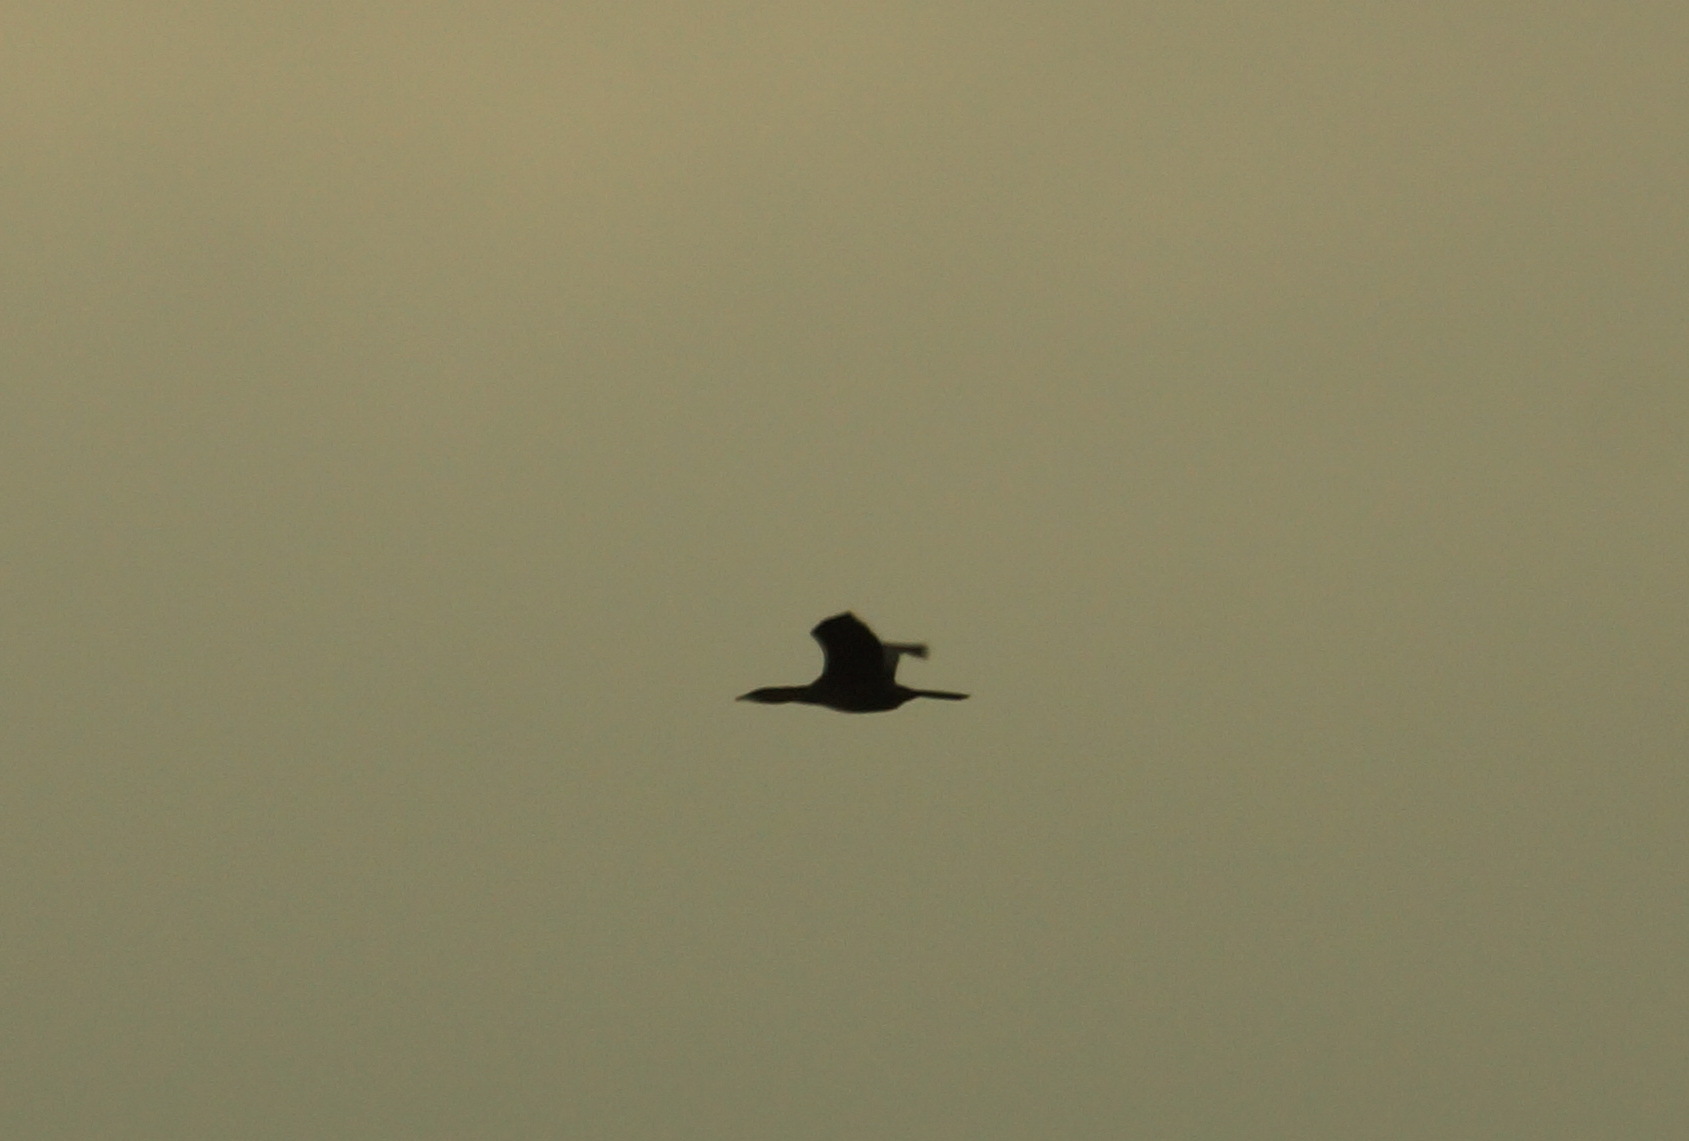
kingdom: Animalia
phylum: Chordata
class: Aves
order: Suliformes
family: Phalacrocoracidae
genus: Microcarbo
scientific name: Microcarbo pygmaeus
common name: Pygmy cormorant
